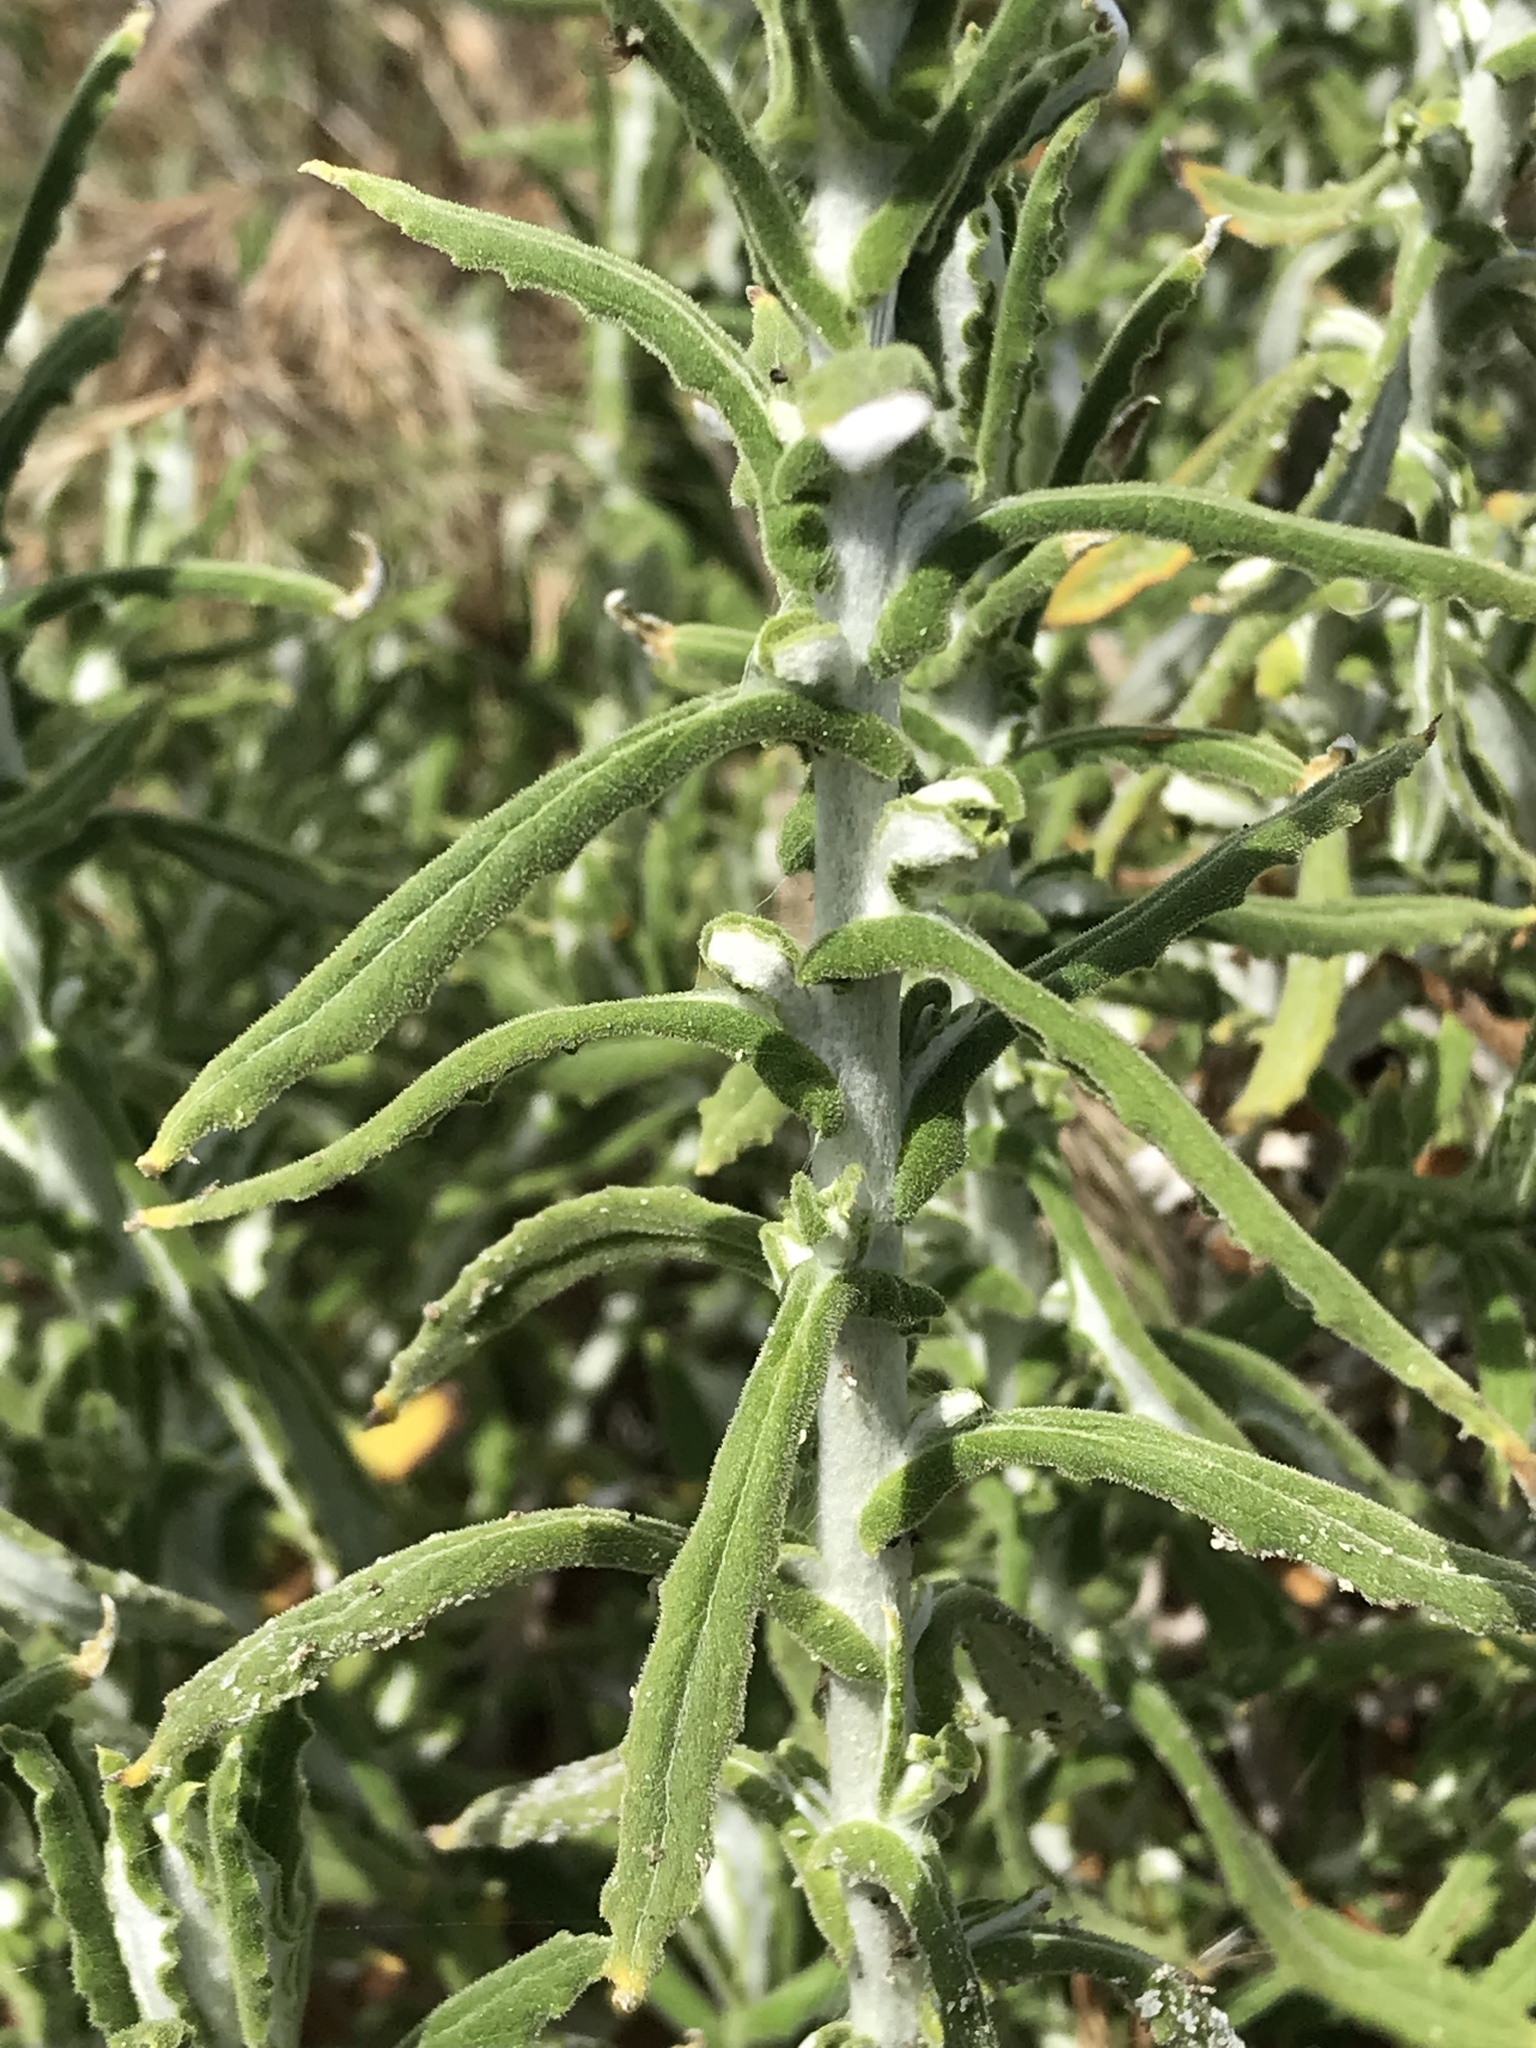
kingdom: Plantae
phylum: Tracheophyta
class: Magnoliopsida
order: Asterales
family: Asteraceae
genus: Pseudognaphalium
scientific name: Pseudognaphalium biolettii
